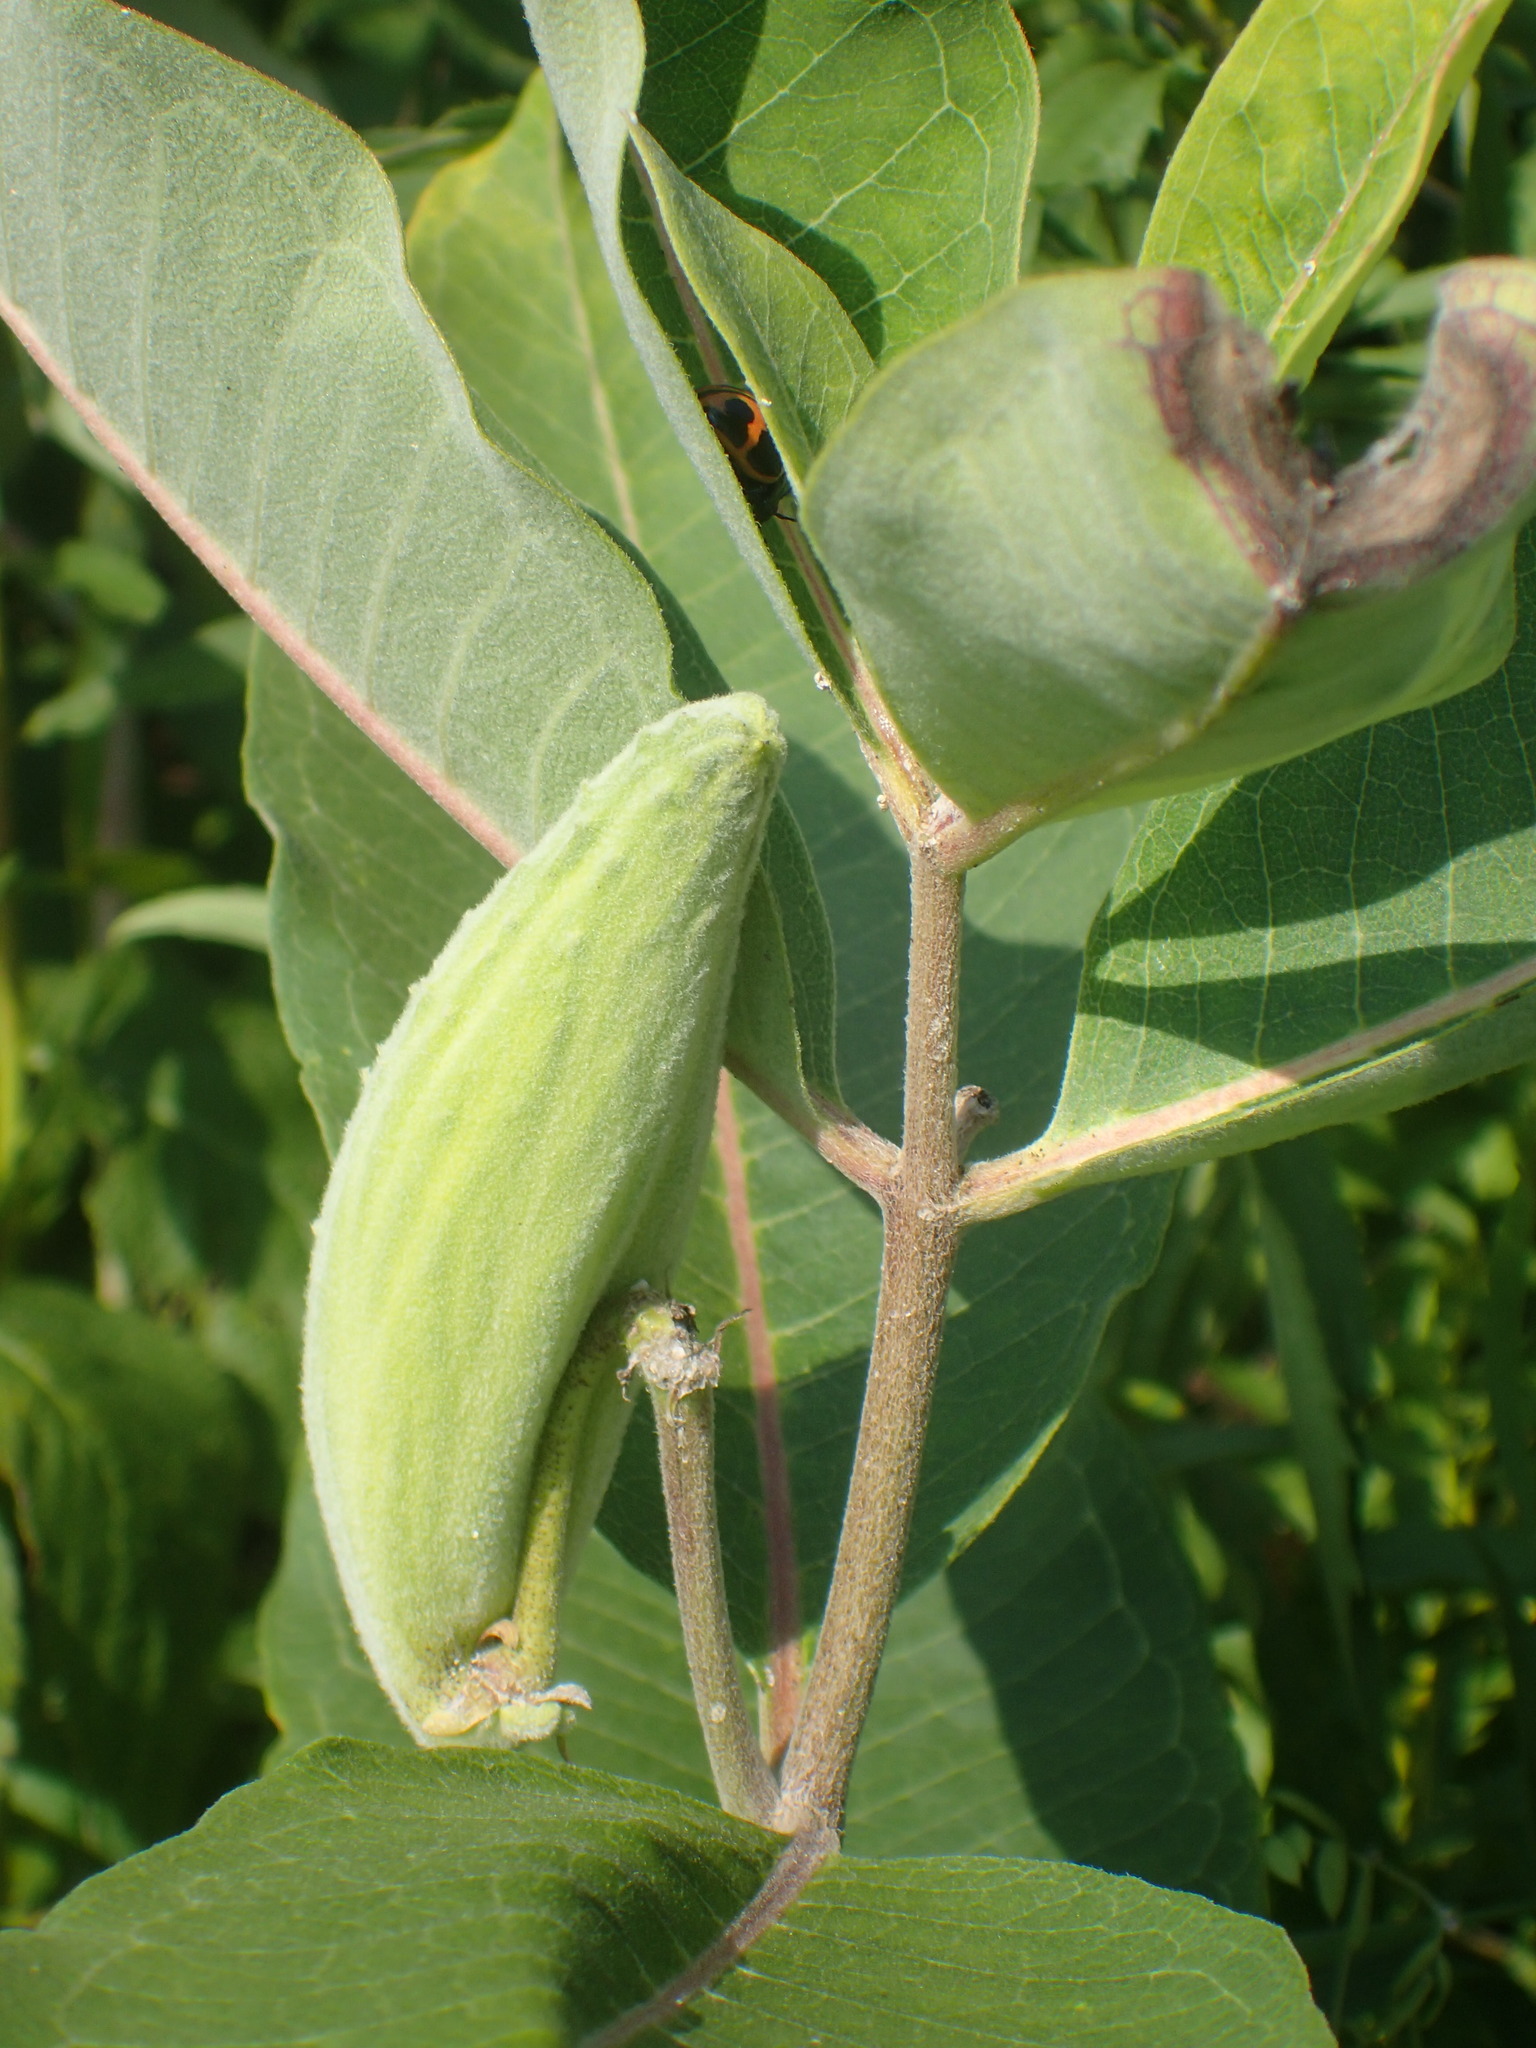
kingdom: Plantae
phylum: Tracheophyta
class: Magnoliopsida
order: Gentianales
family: Apocynaceae
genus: Asclepias
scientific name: Asclepias syriaca
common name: Common milkweed
